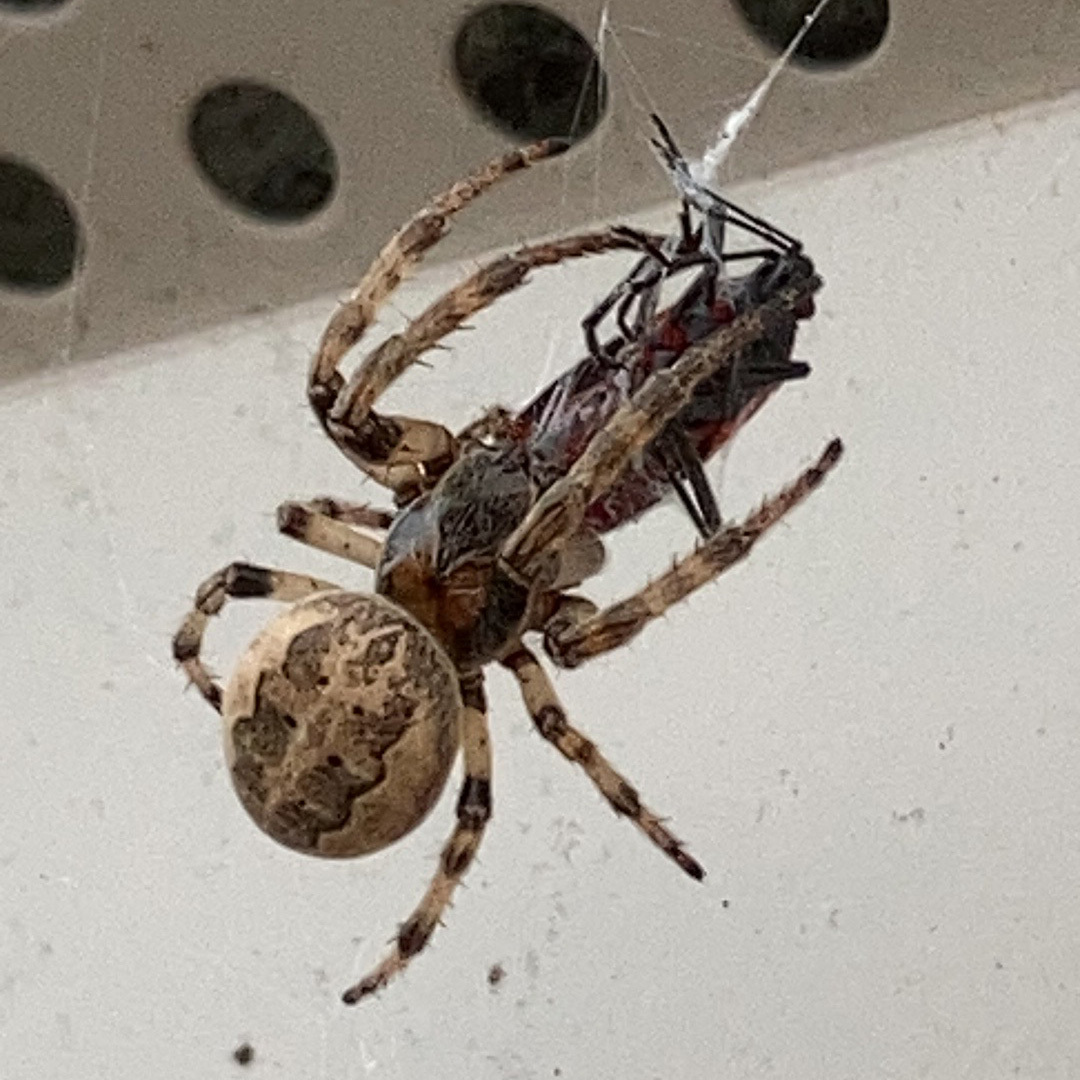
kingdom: Animalia
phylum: Arthropoda
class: Arachnida
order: Araneae
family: Araneidae
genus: Larinioides
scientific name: Larinioides cornutus
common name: Furrow orbweaver
